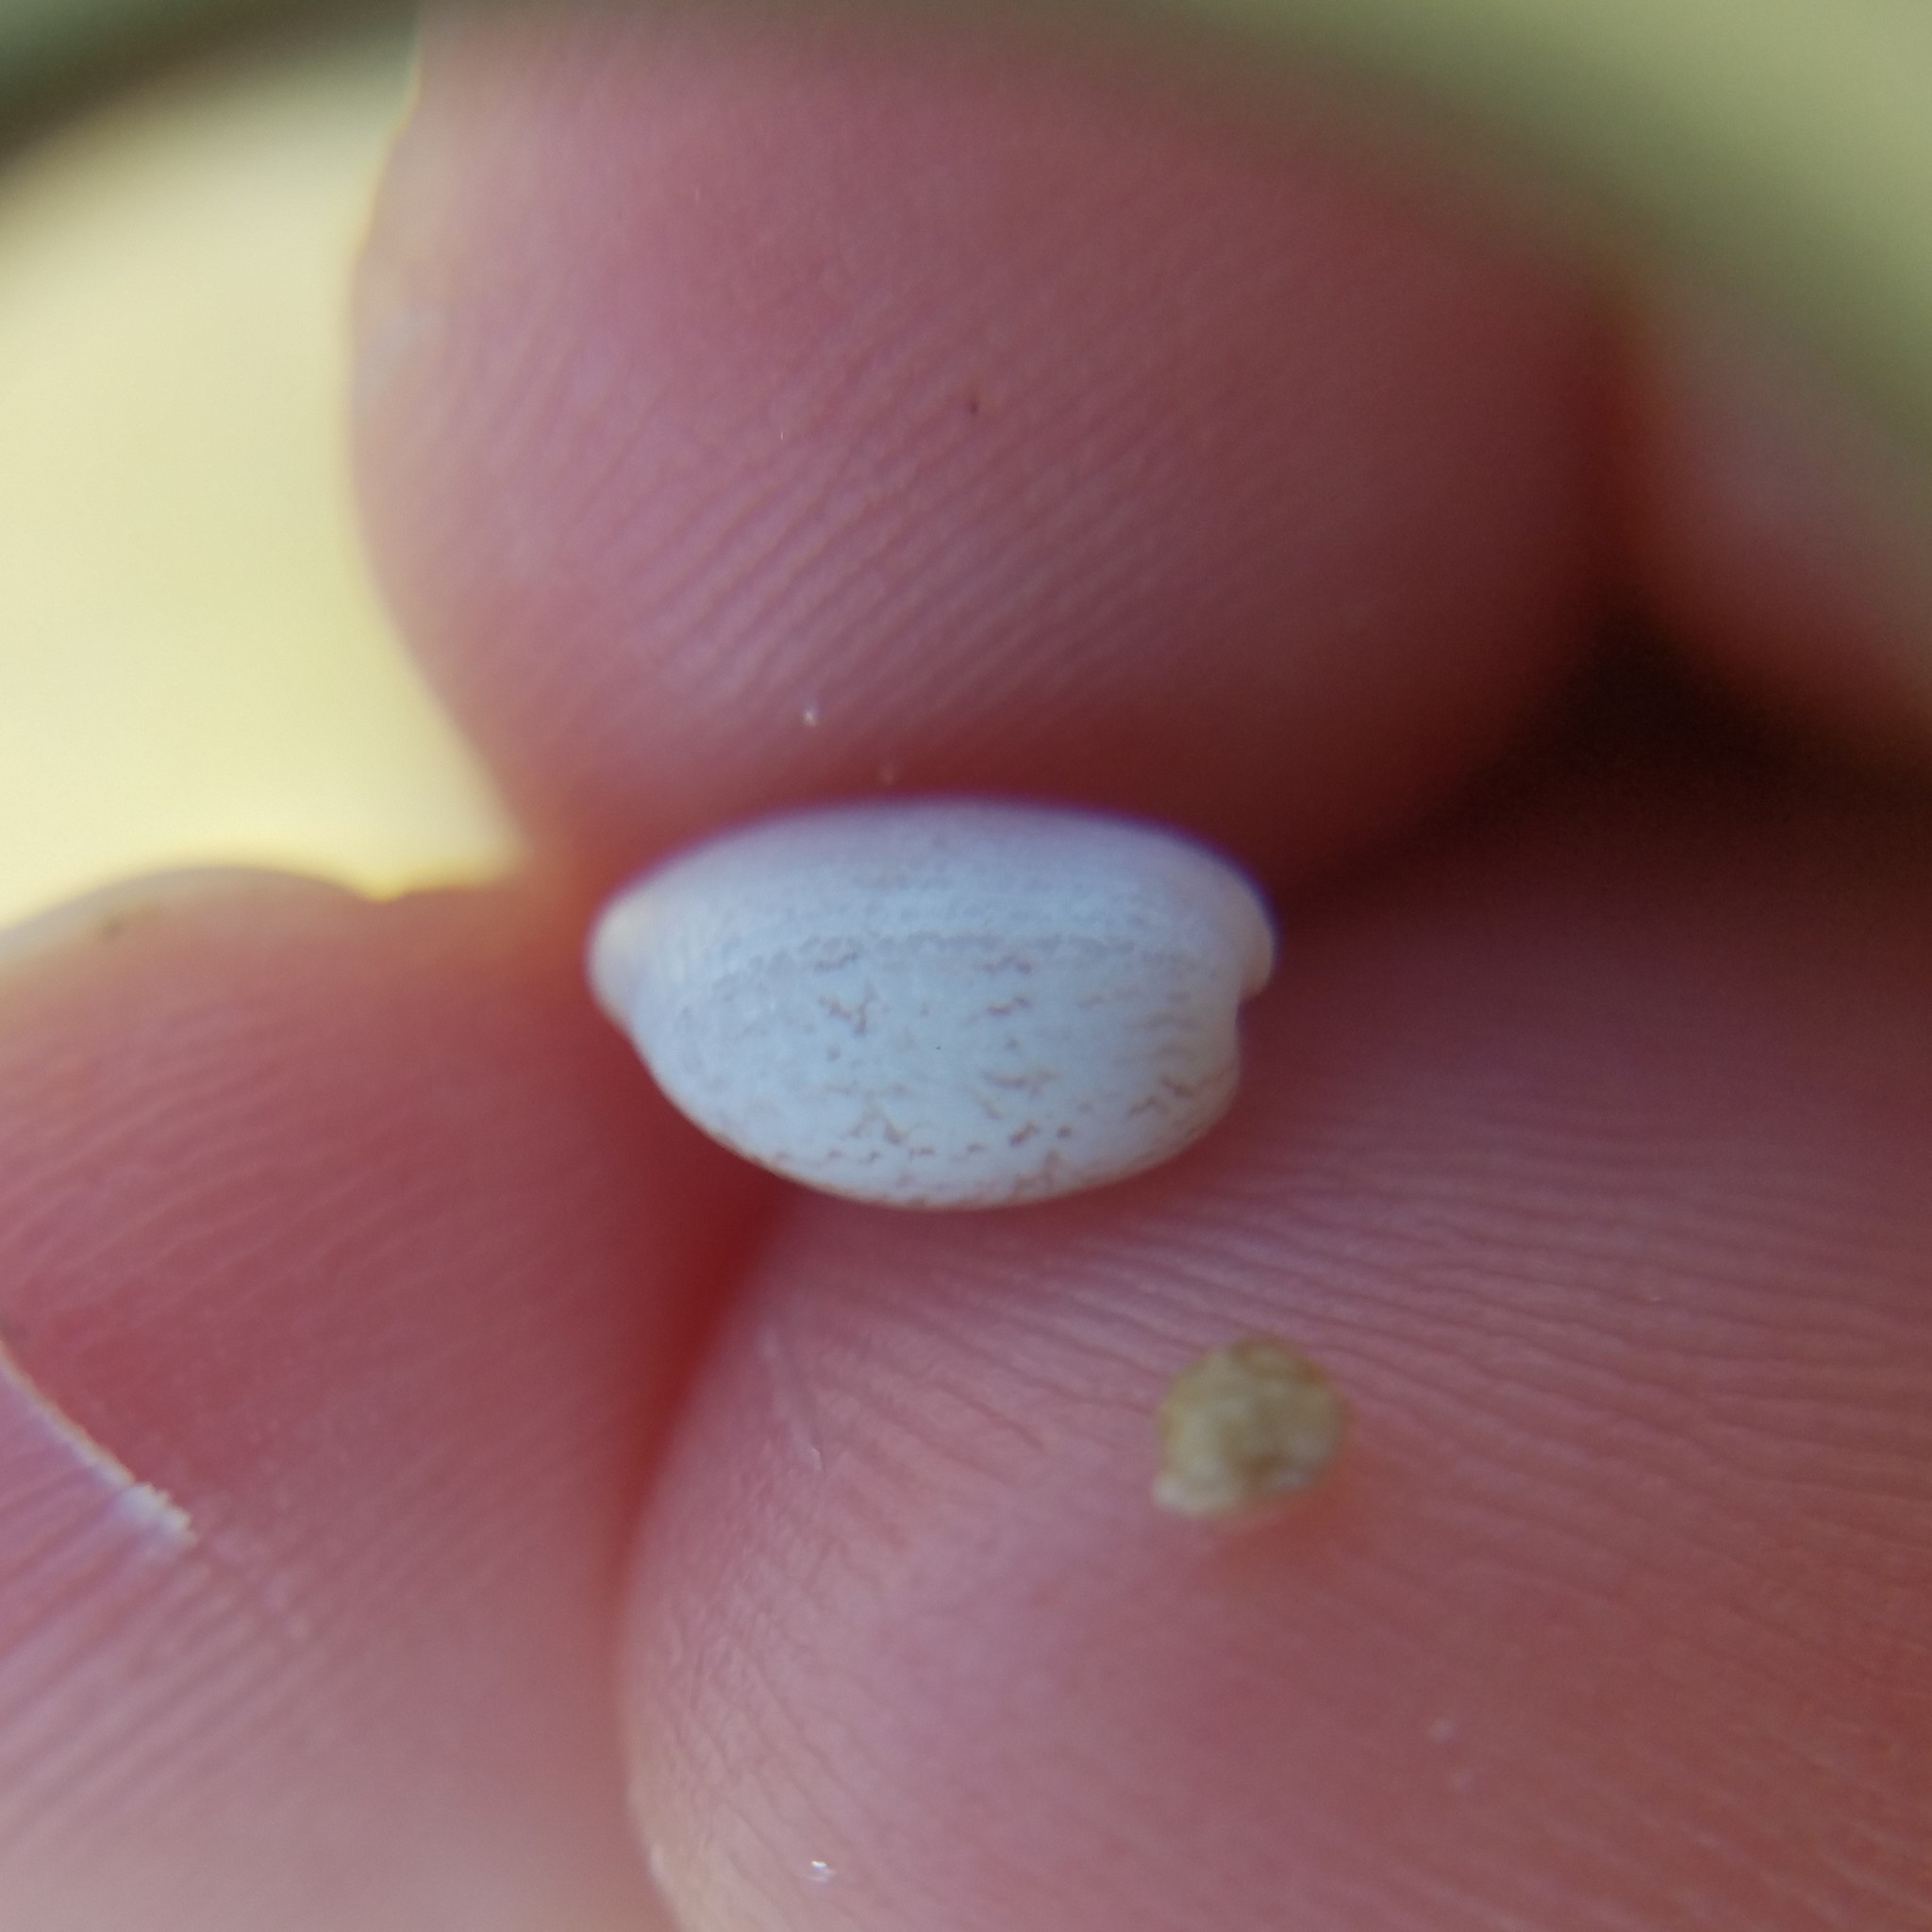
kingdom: Animalia
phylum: Mollusca
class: Gastropoda
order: Cephalaspidea
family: Bullidae
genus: Bulla
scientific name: Bulla occidentalis
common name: Common west-indian bubble
